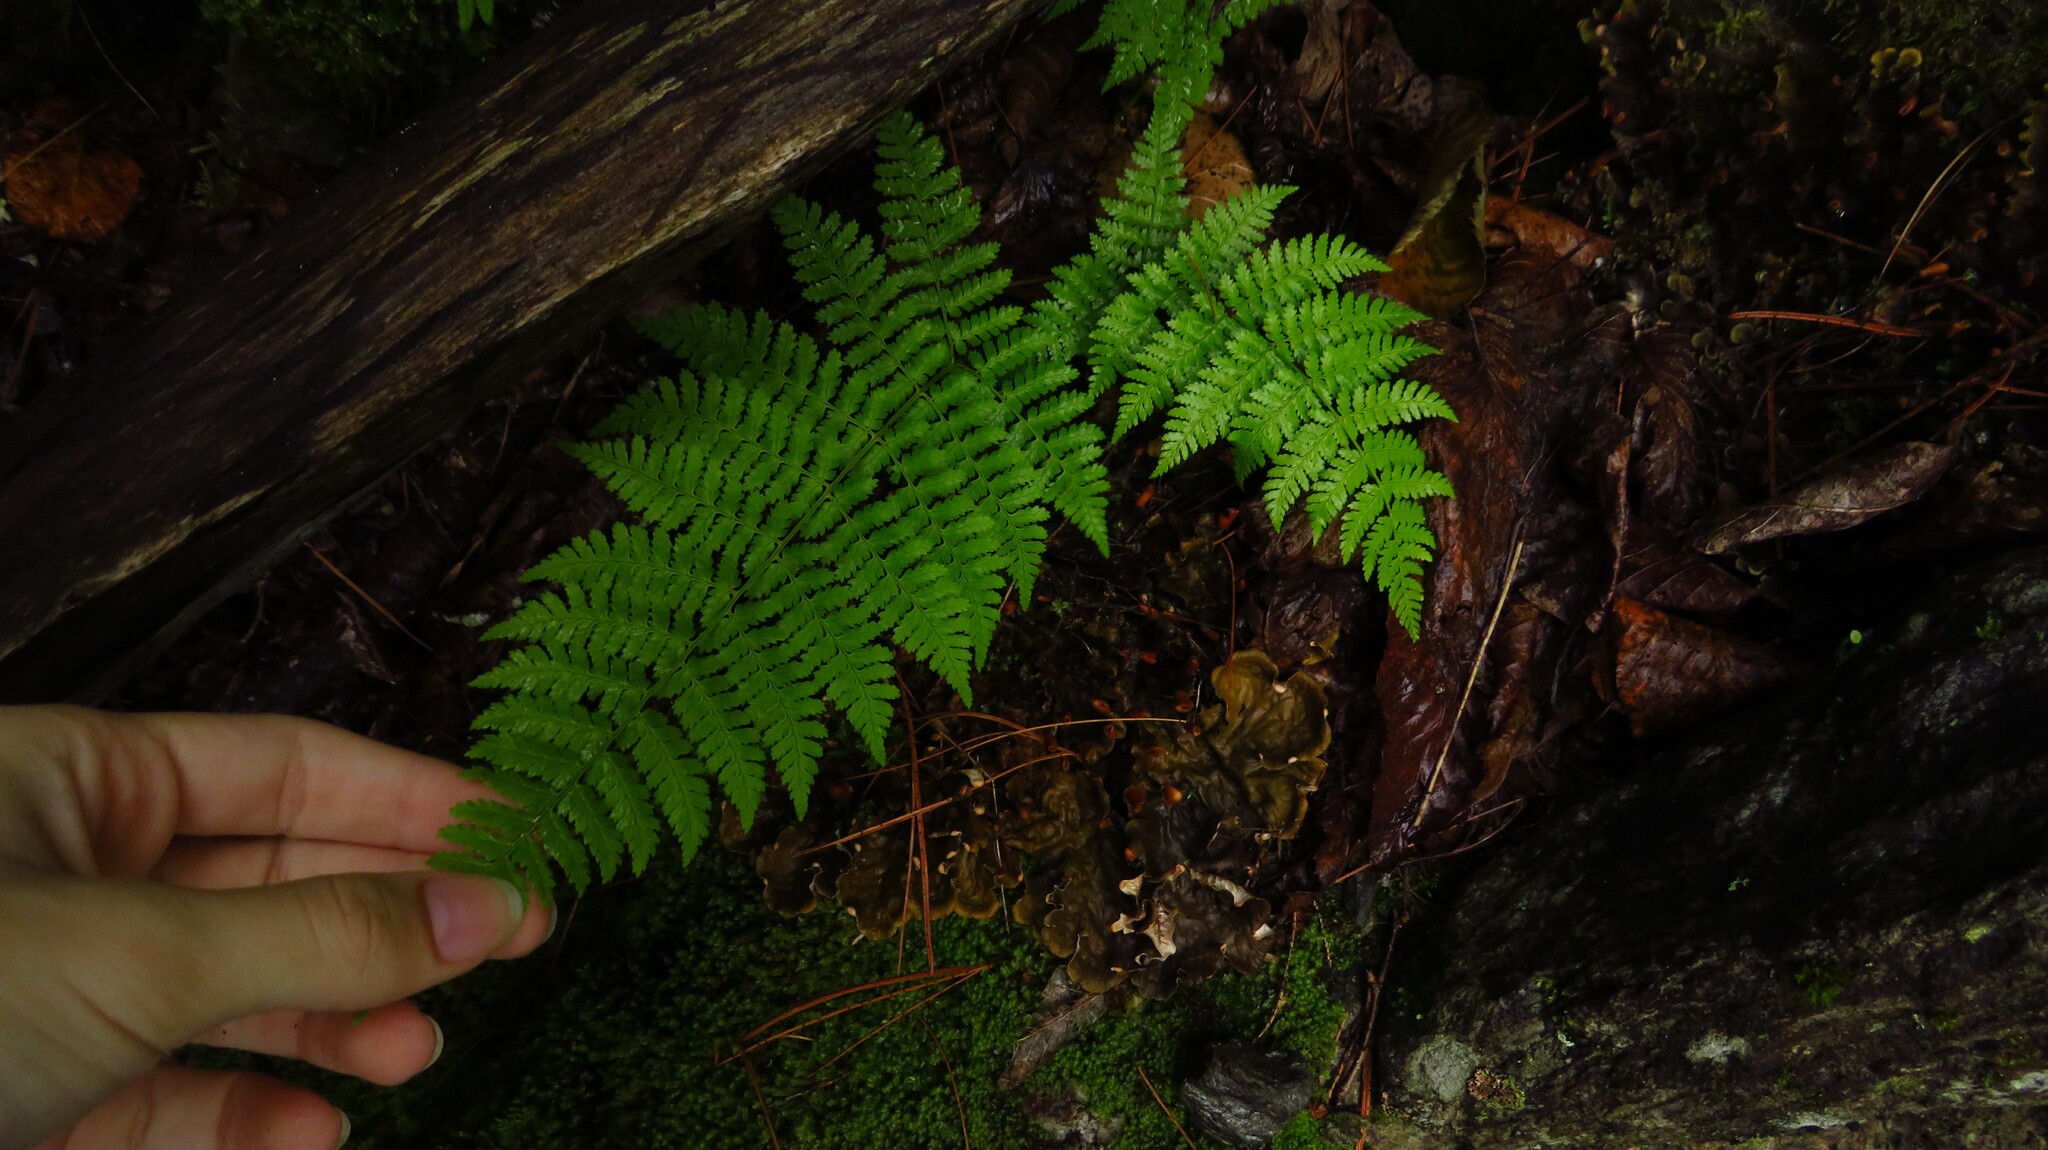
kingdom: Plantae
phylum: Tracheophyta
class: Polypodiopsida
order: Polypodiales
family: Dryopteridaceae
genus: Dryopteris
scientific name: Dryopteris intermedia
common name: Evergreen wood fern
